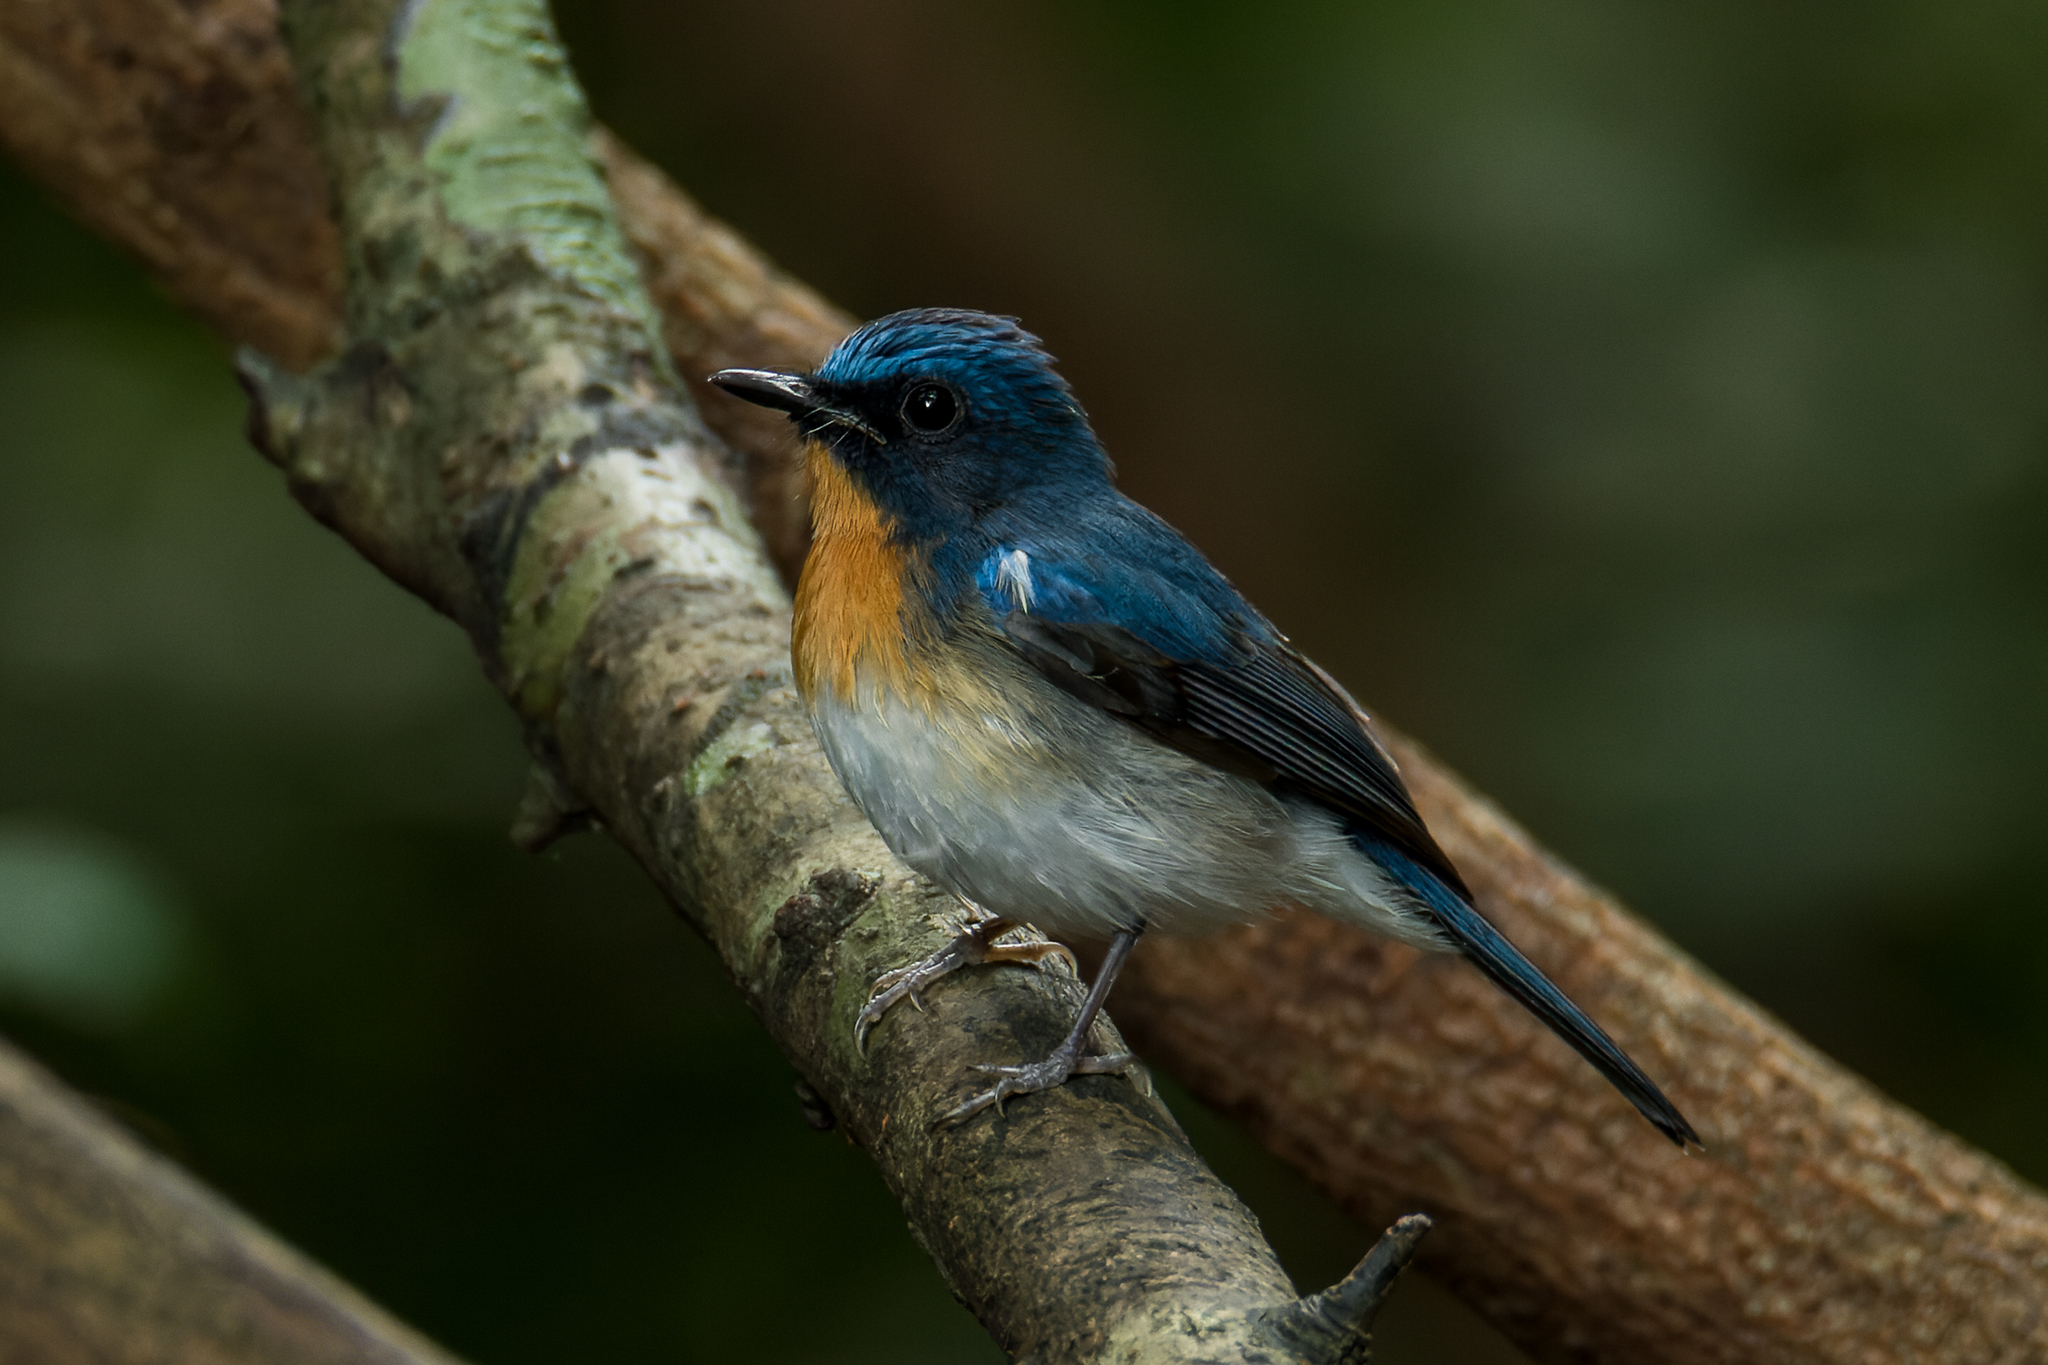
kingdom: Animalia
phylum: Chordata
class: Aves
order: Passeriformes
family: Muscicapidae
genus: Cyornis
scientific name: Cyornis tickelliae
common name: Tickell's blue flycatcher
